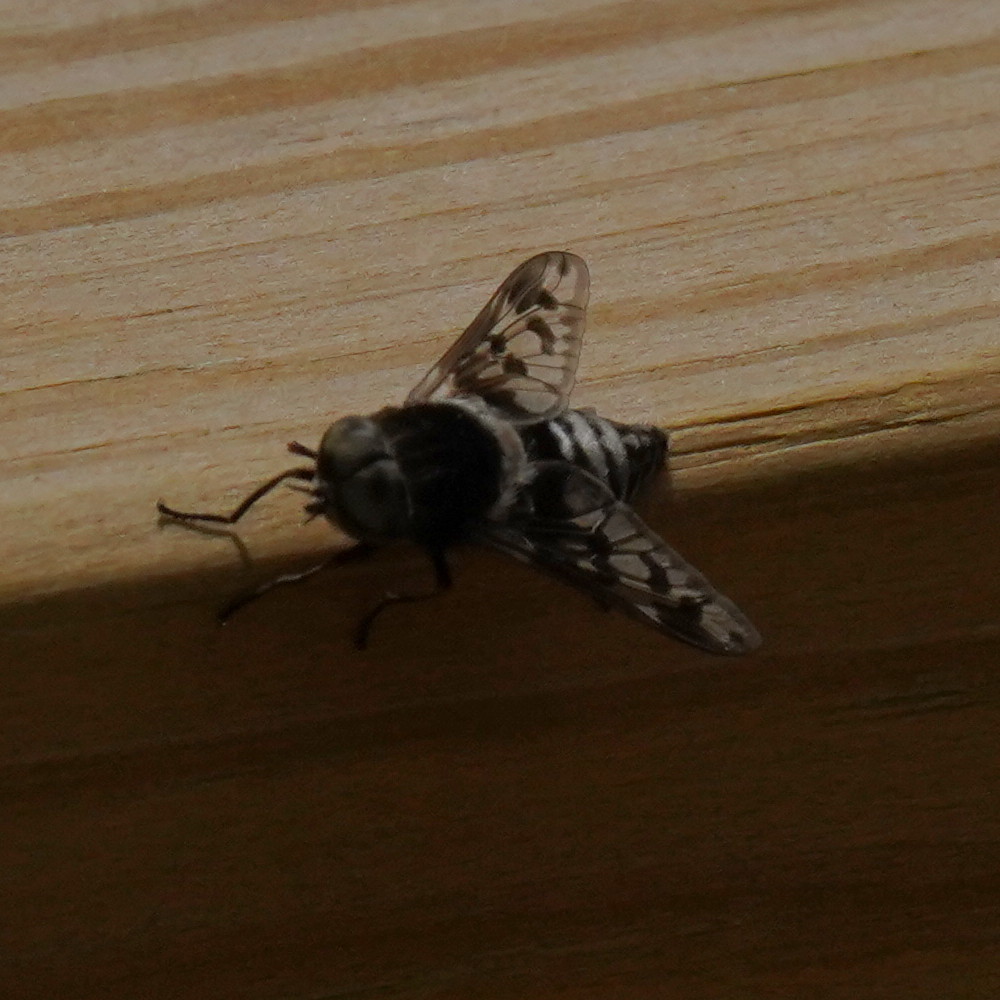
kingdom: Animalia
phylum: Arthropoda
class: Insecta
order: Diptera
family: Tabanidae
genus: Tabanus
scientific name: Tabanus venustus
